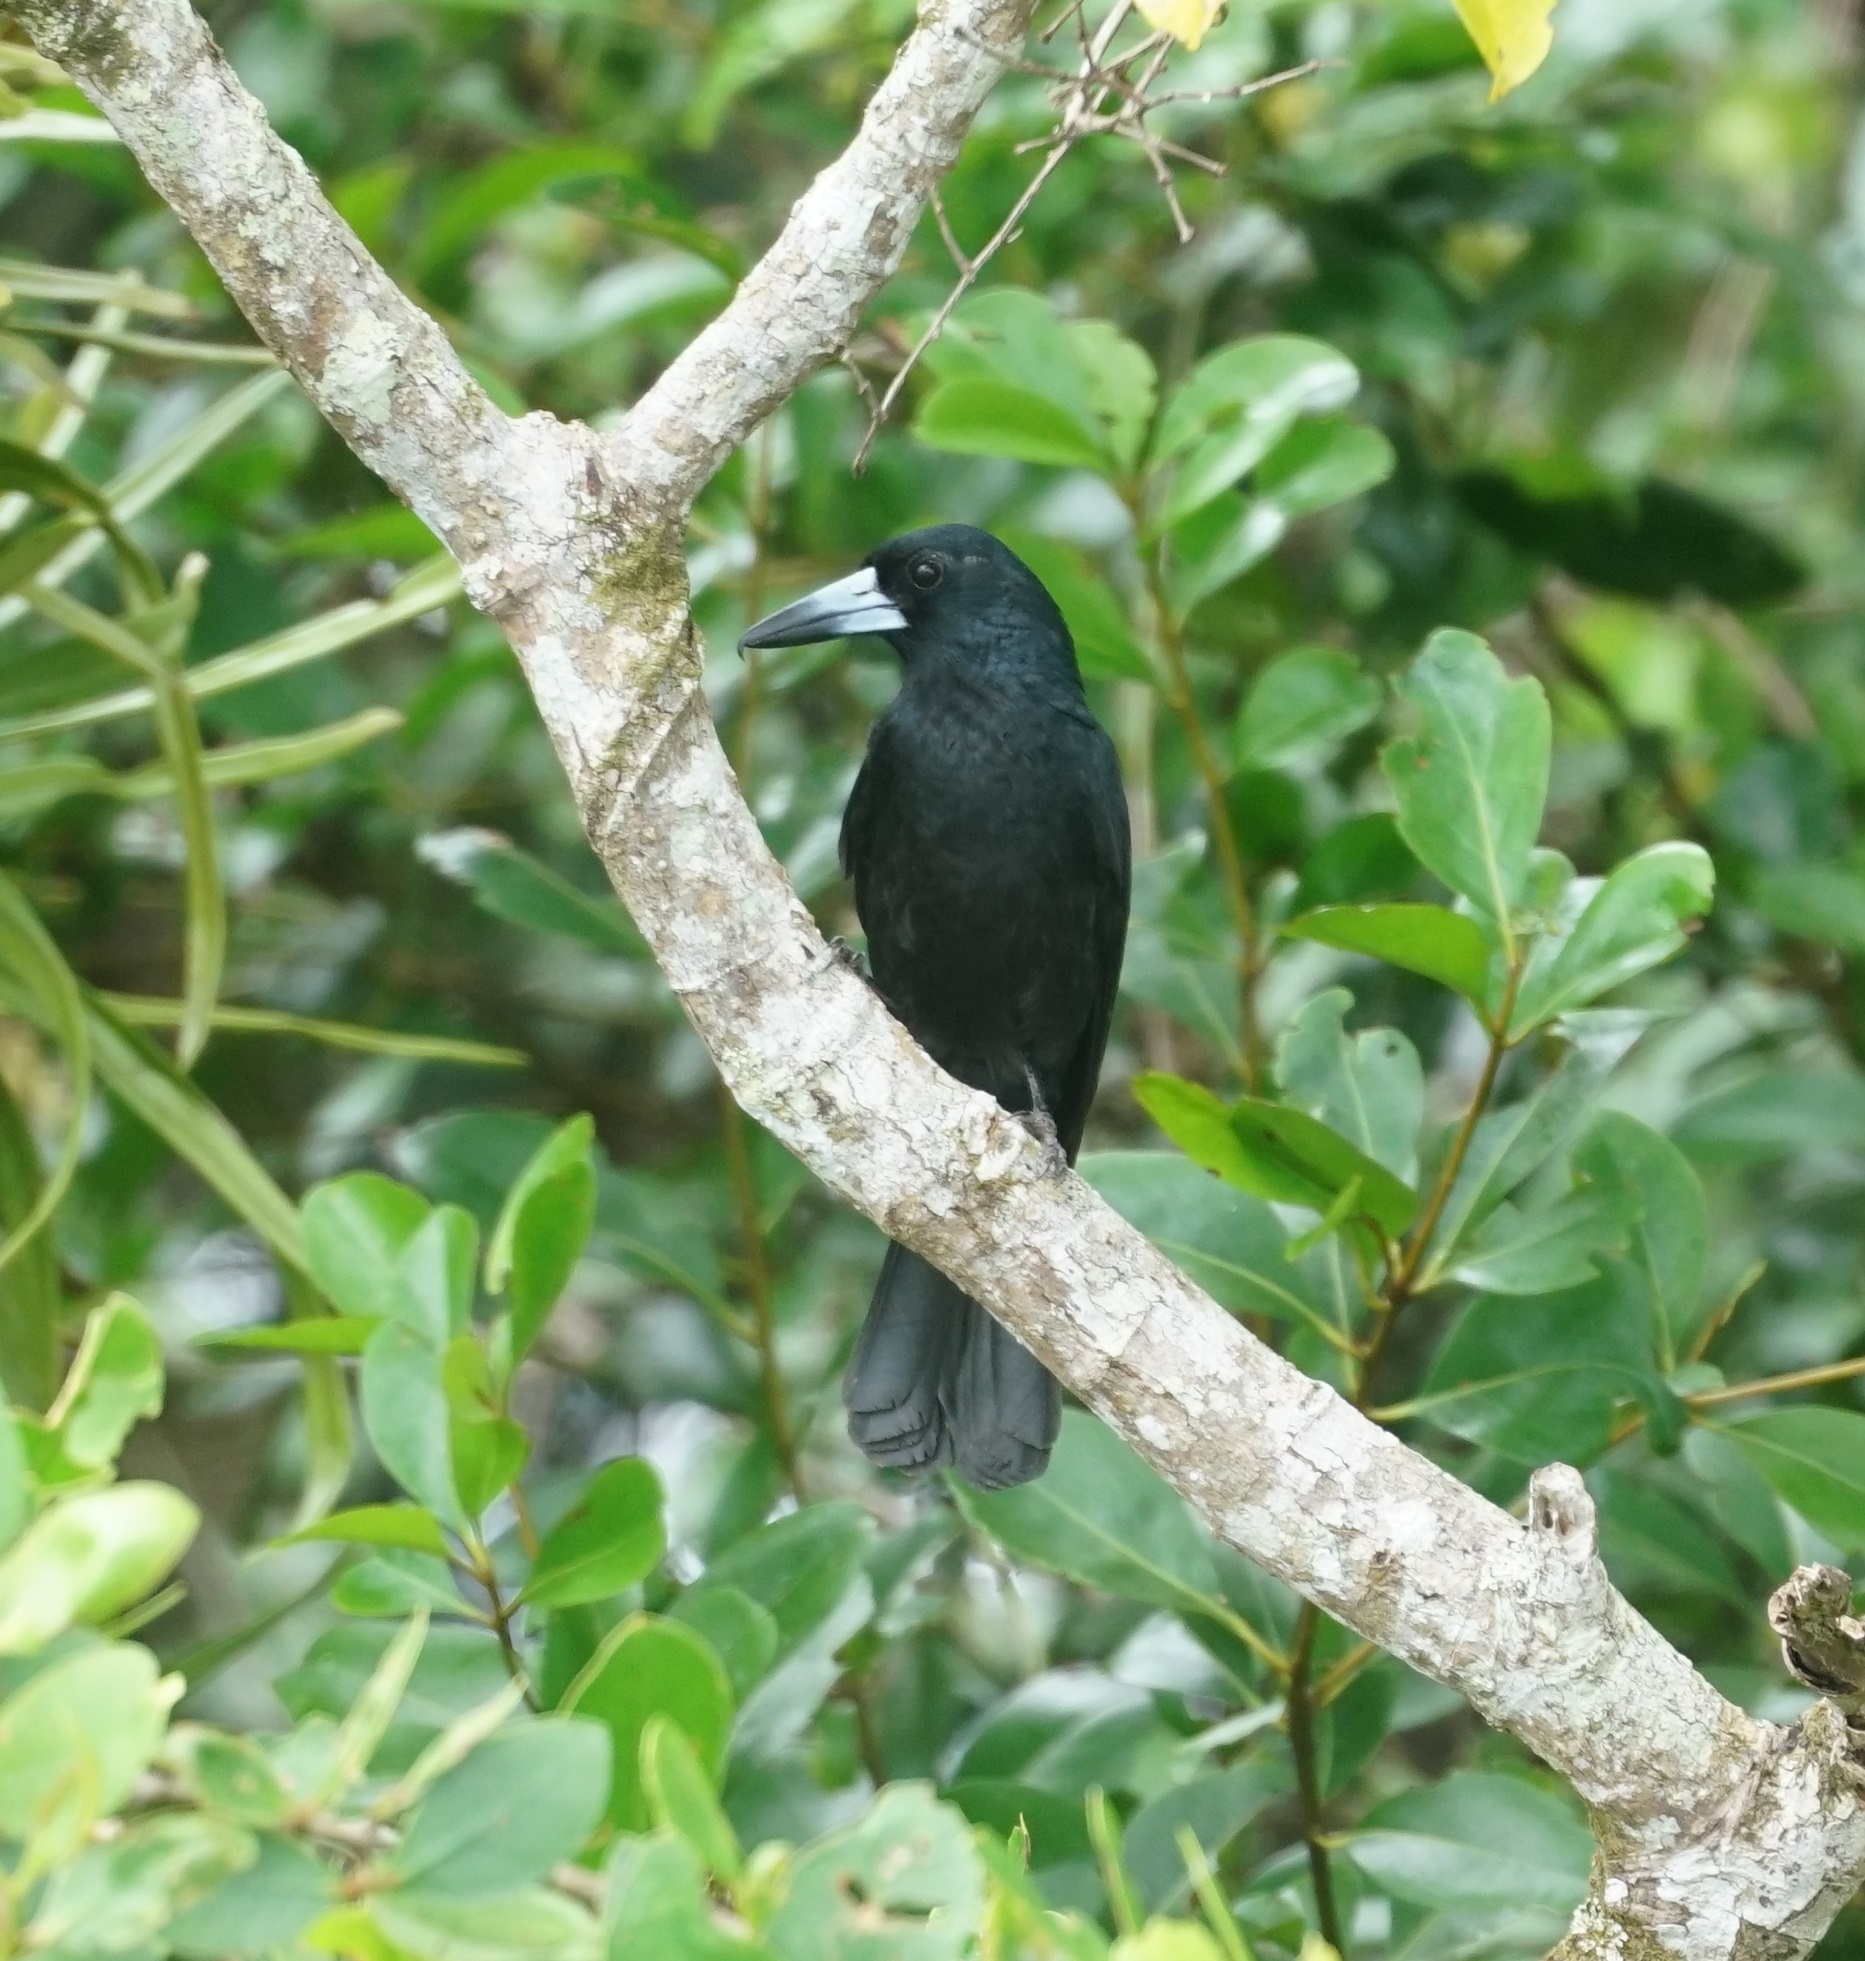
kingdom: Animalia
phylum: Chordata
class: Aves
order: Passeriformes
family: Artamidae
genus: Melloria
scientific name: Melloria quoyi
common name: Black butcherbird
